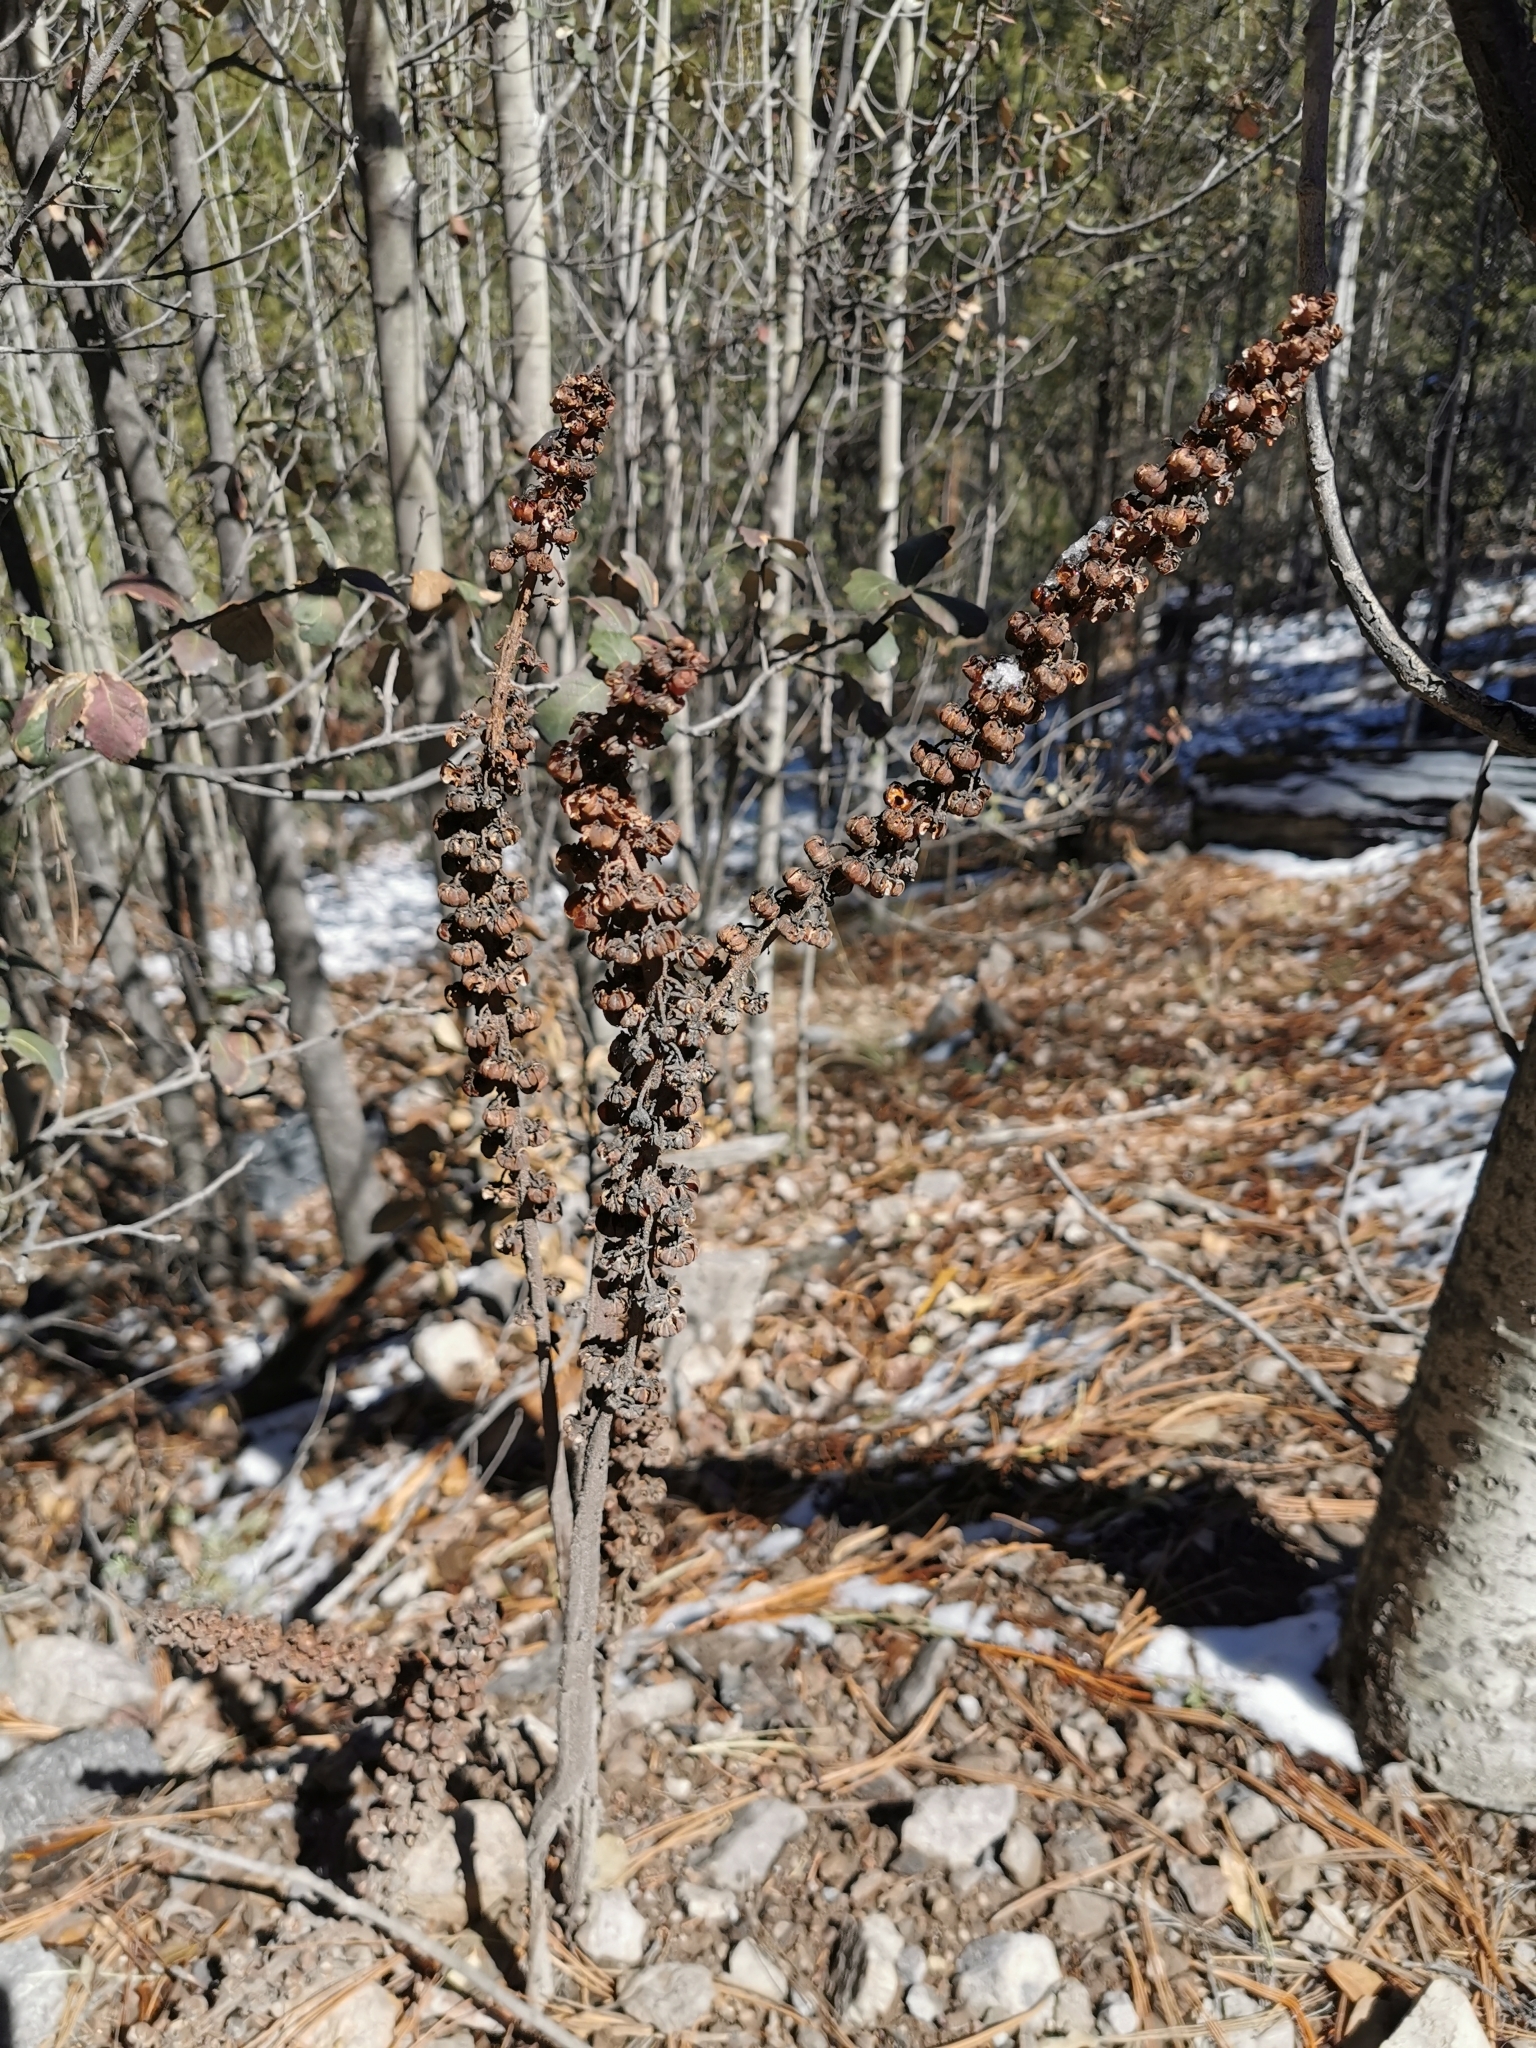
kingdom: Plantae
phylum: Tracheophyta
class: Magnoliopsida
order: Ericales
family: Ericaceae
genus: Pterospora
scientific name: Pterospora andromedea
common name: Giant bird's-nest
